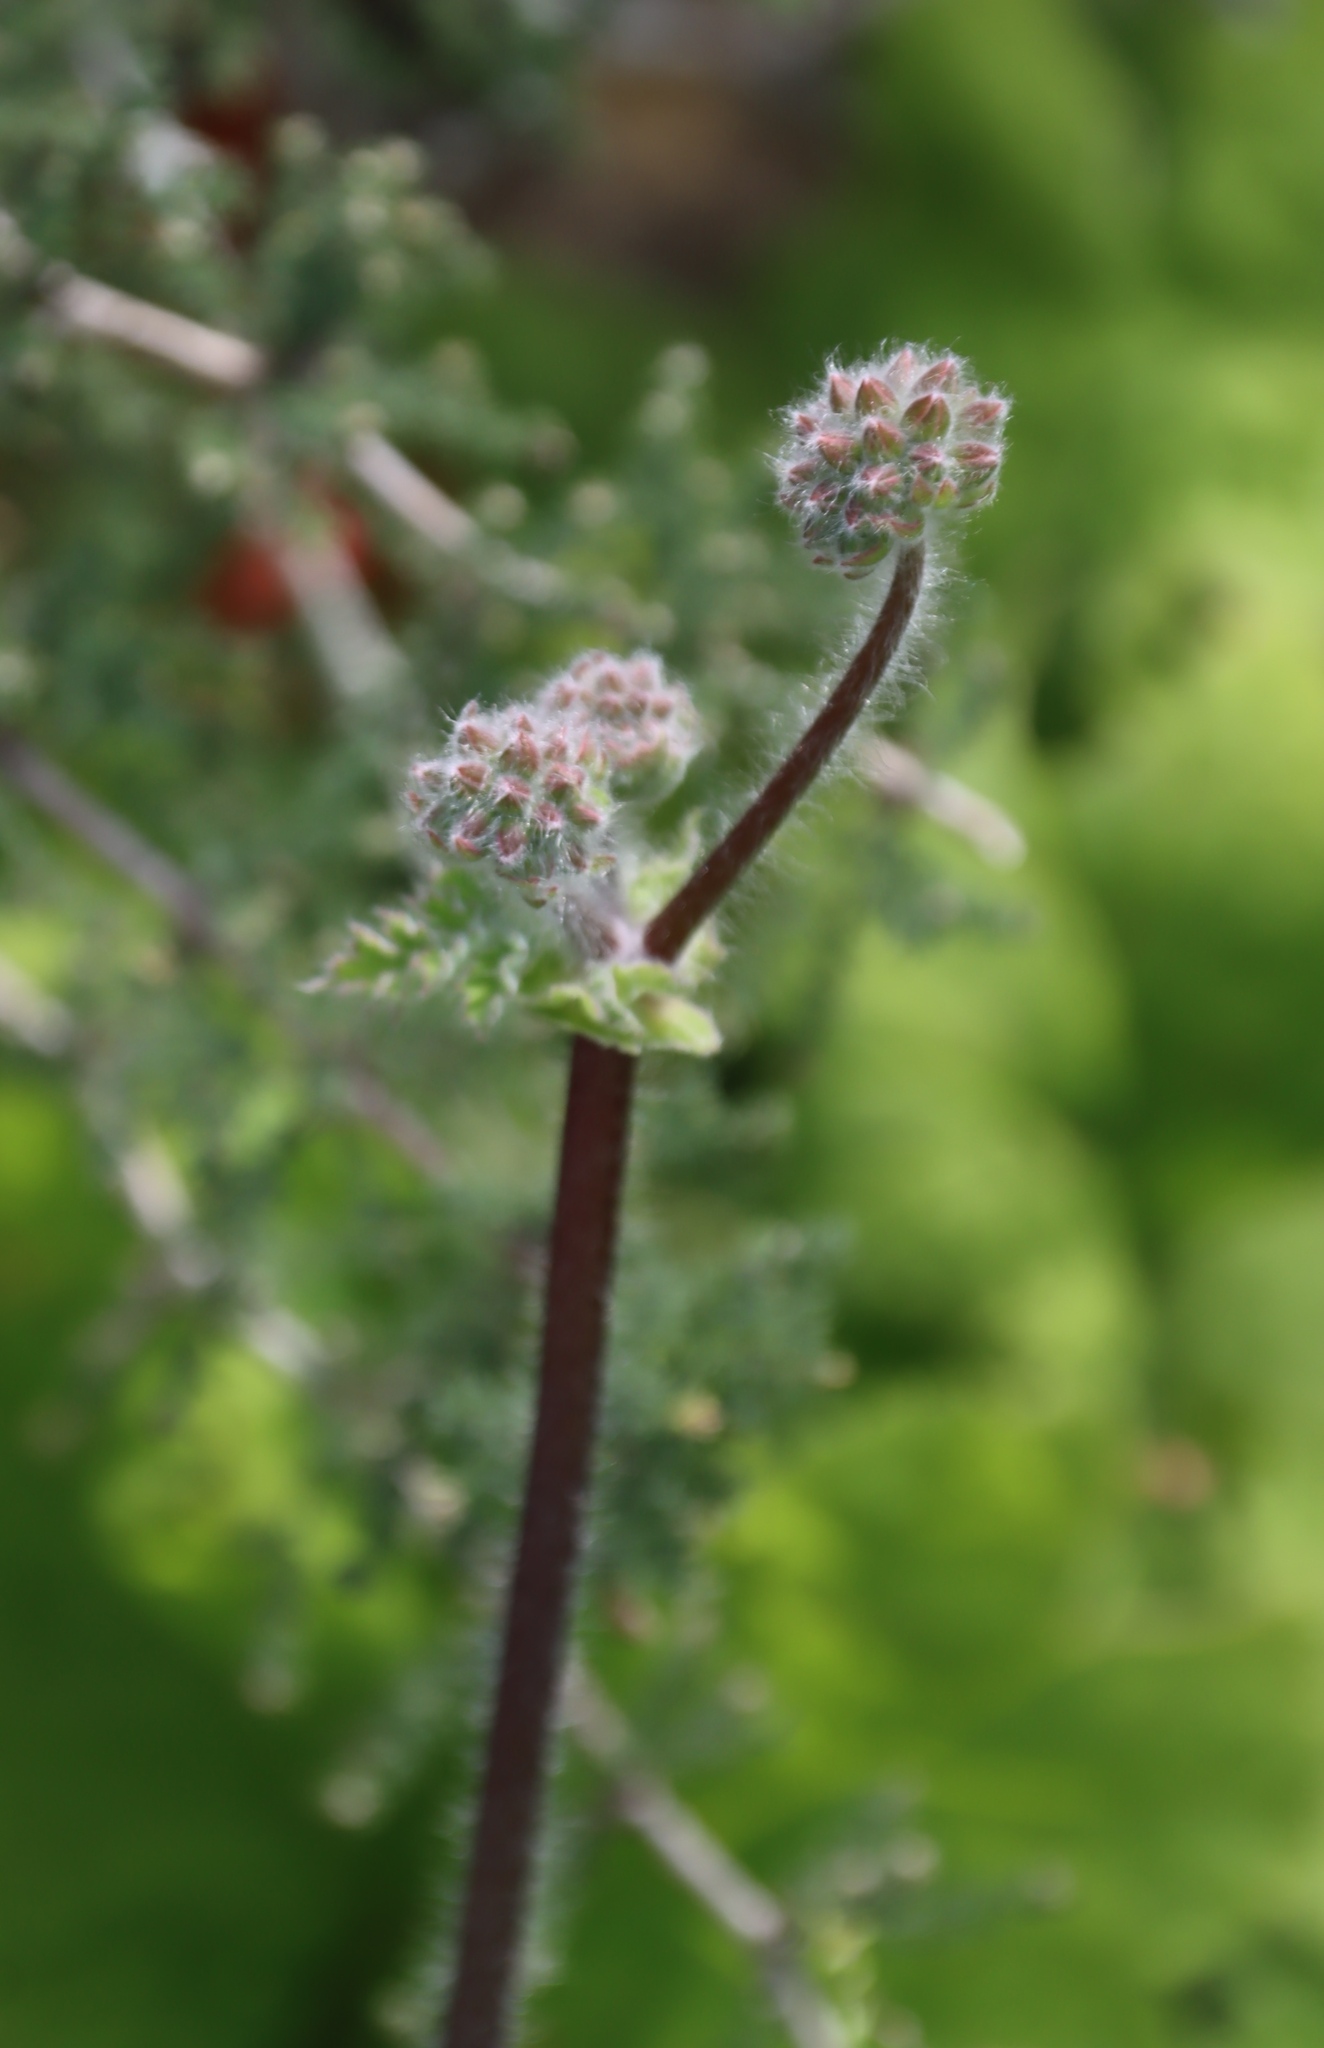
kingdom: Plantae
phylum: Tracheophyta
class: Magnoliopsida
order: Geraniales
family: Geraniaceae
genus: Pelargonium
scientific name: Pelargonium lobatum
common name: Vine-leaf pelargonium
